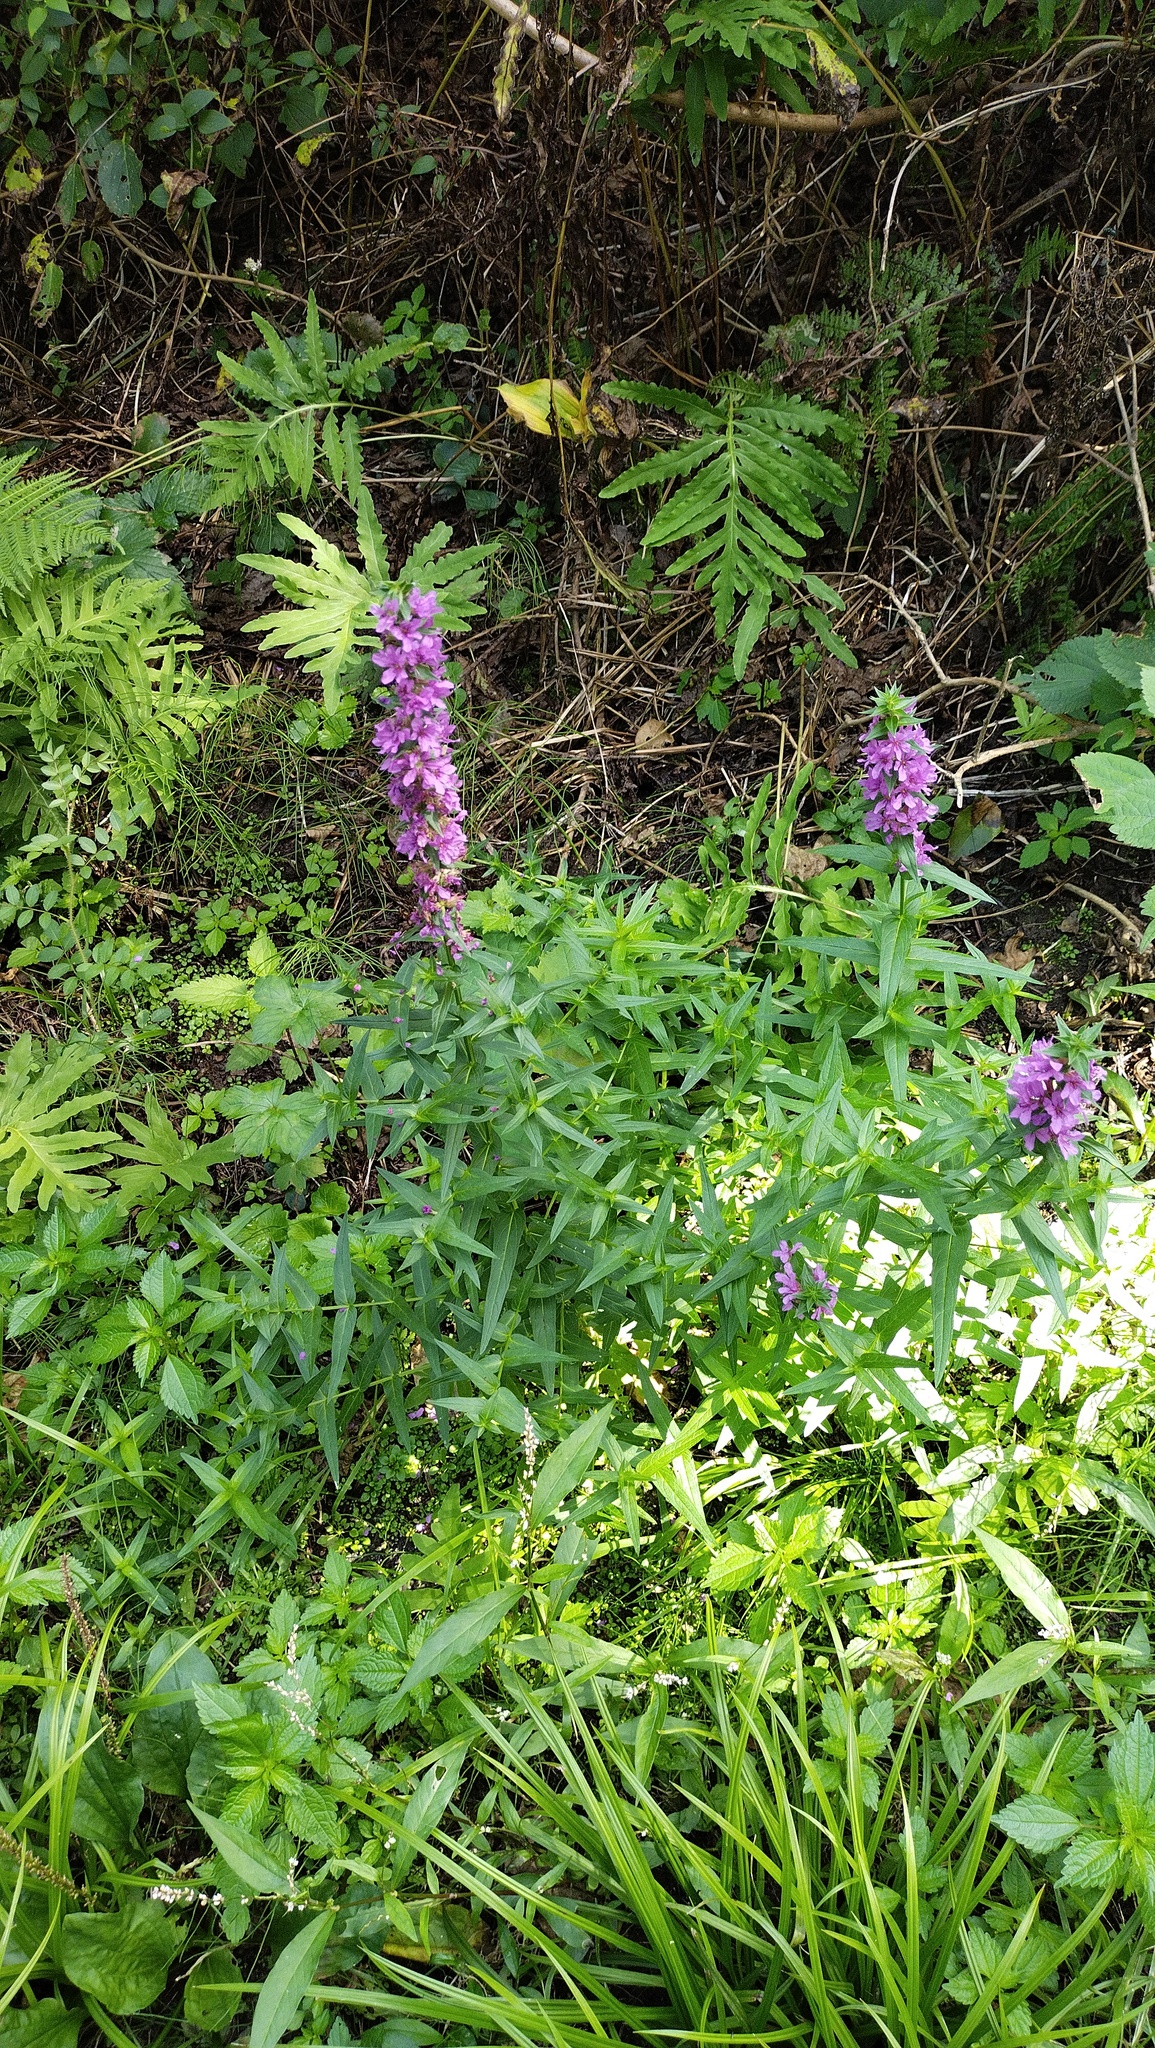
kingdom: Plantae
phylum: Tracheophyta
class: Magnoliopsida
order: Myrtales
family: Lythraceae
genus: Lythrum
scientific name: Lythrum salicaria
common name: Purple loosestrife
